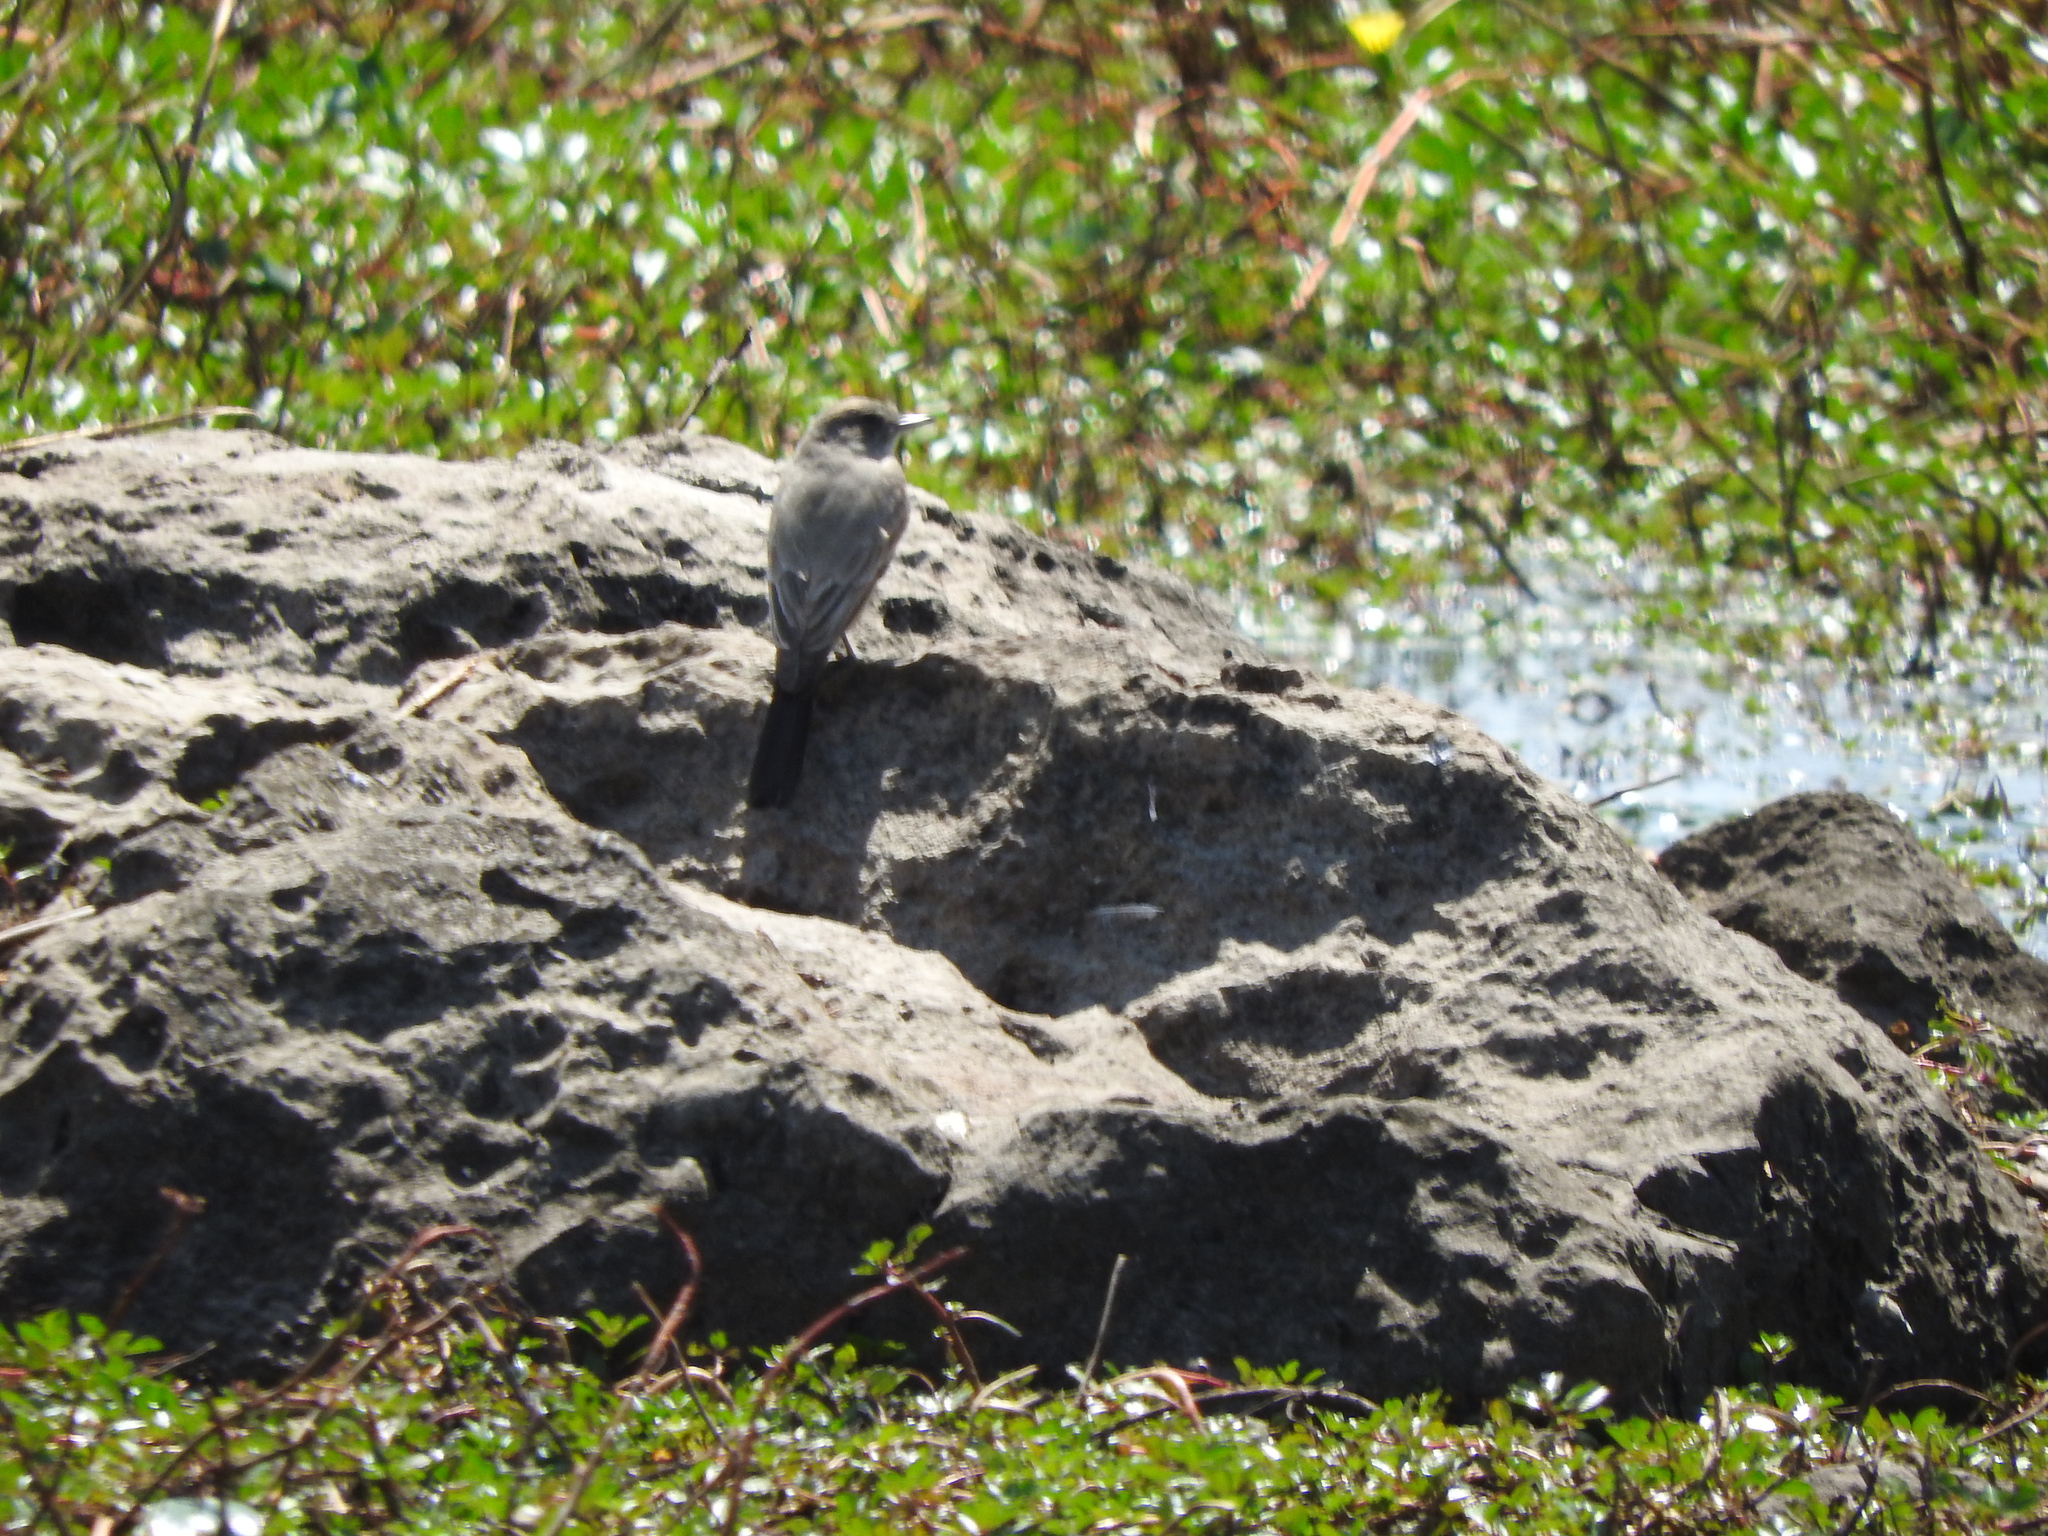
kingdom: Animalia
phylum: Chordata
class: Aves
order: Passeriformes
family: Tyrannidae
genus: Sayornis
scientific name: Sayornis saya
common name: Say's phoebe
